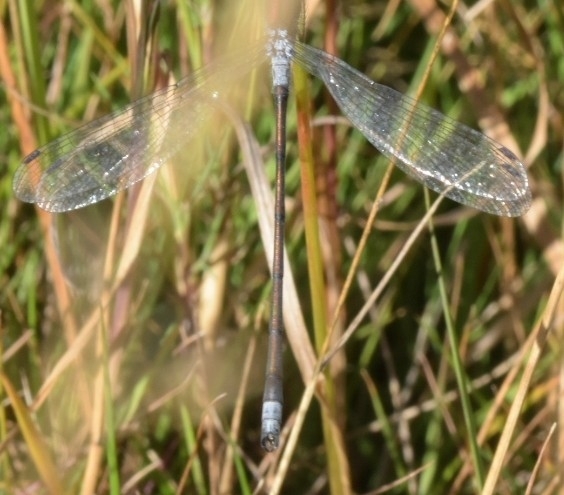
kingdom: Animalia
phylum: Arthropoda
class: Insecta
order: Odonata
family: Lestidae
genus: Lestes
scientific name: Lestes sponsa
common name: Common spreadwing
